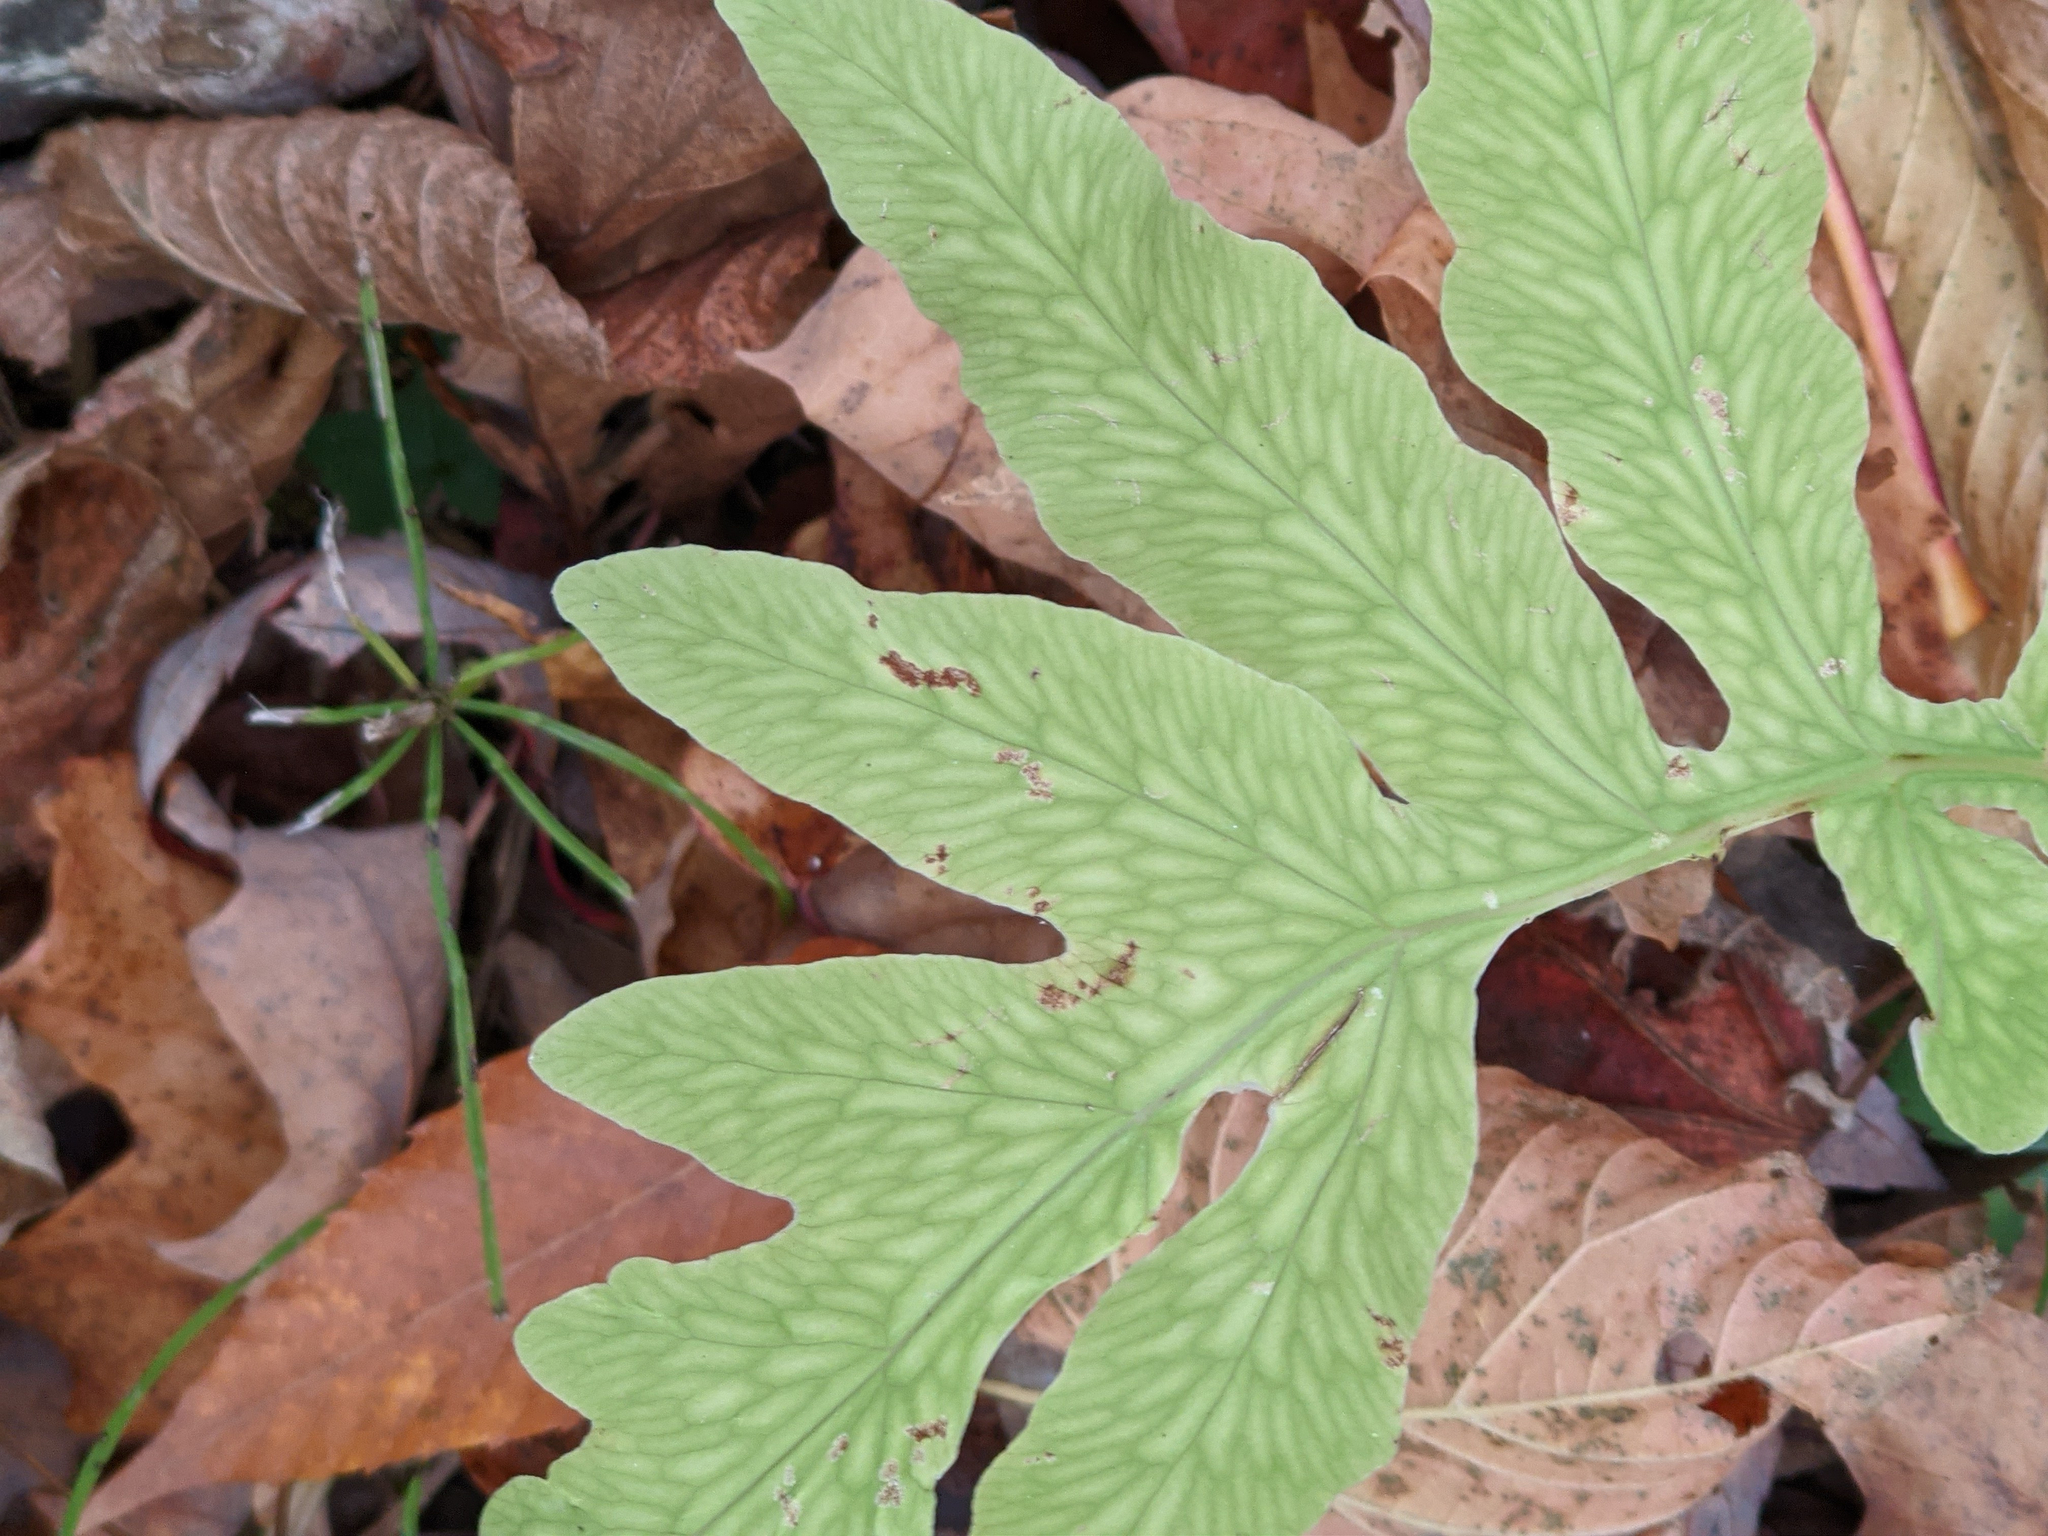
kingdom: Plantae
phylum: Tracheophyta
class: Polypodiopsida
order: Polypodiales
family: Onocleaceae
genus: Onoclea
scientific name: Onoclea sensibilis
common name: Sensitive fern
